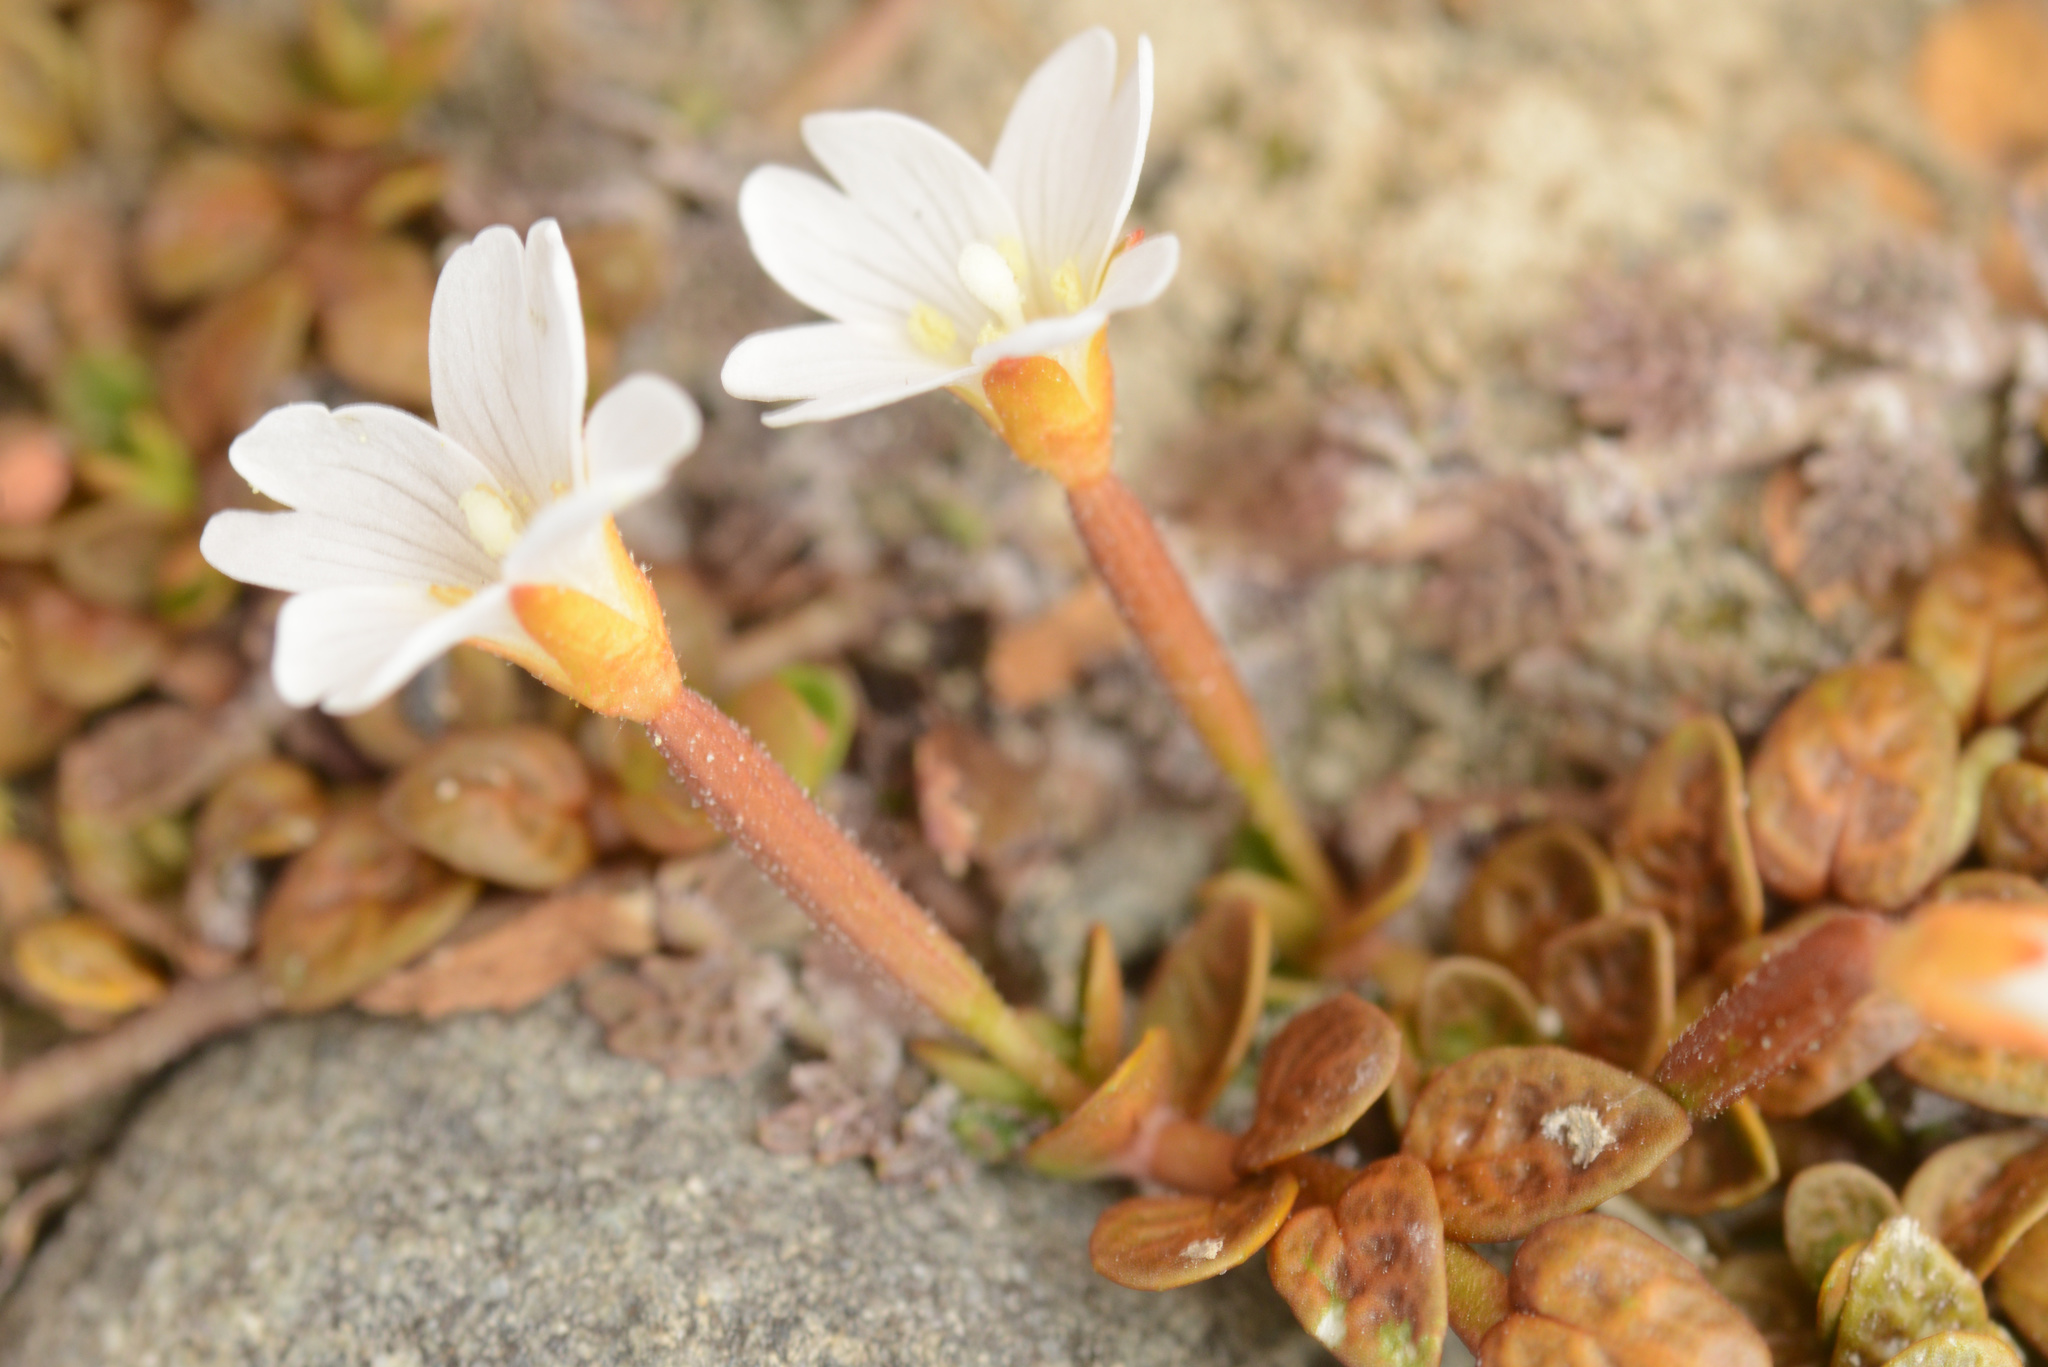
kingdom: Plantae
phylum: Tracheophyta
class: Magnoliopsida
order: Myrtales
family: Onagraceae
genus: Epilobium
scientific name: Epilobium angustum
